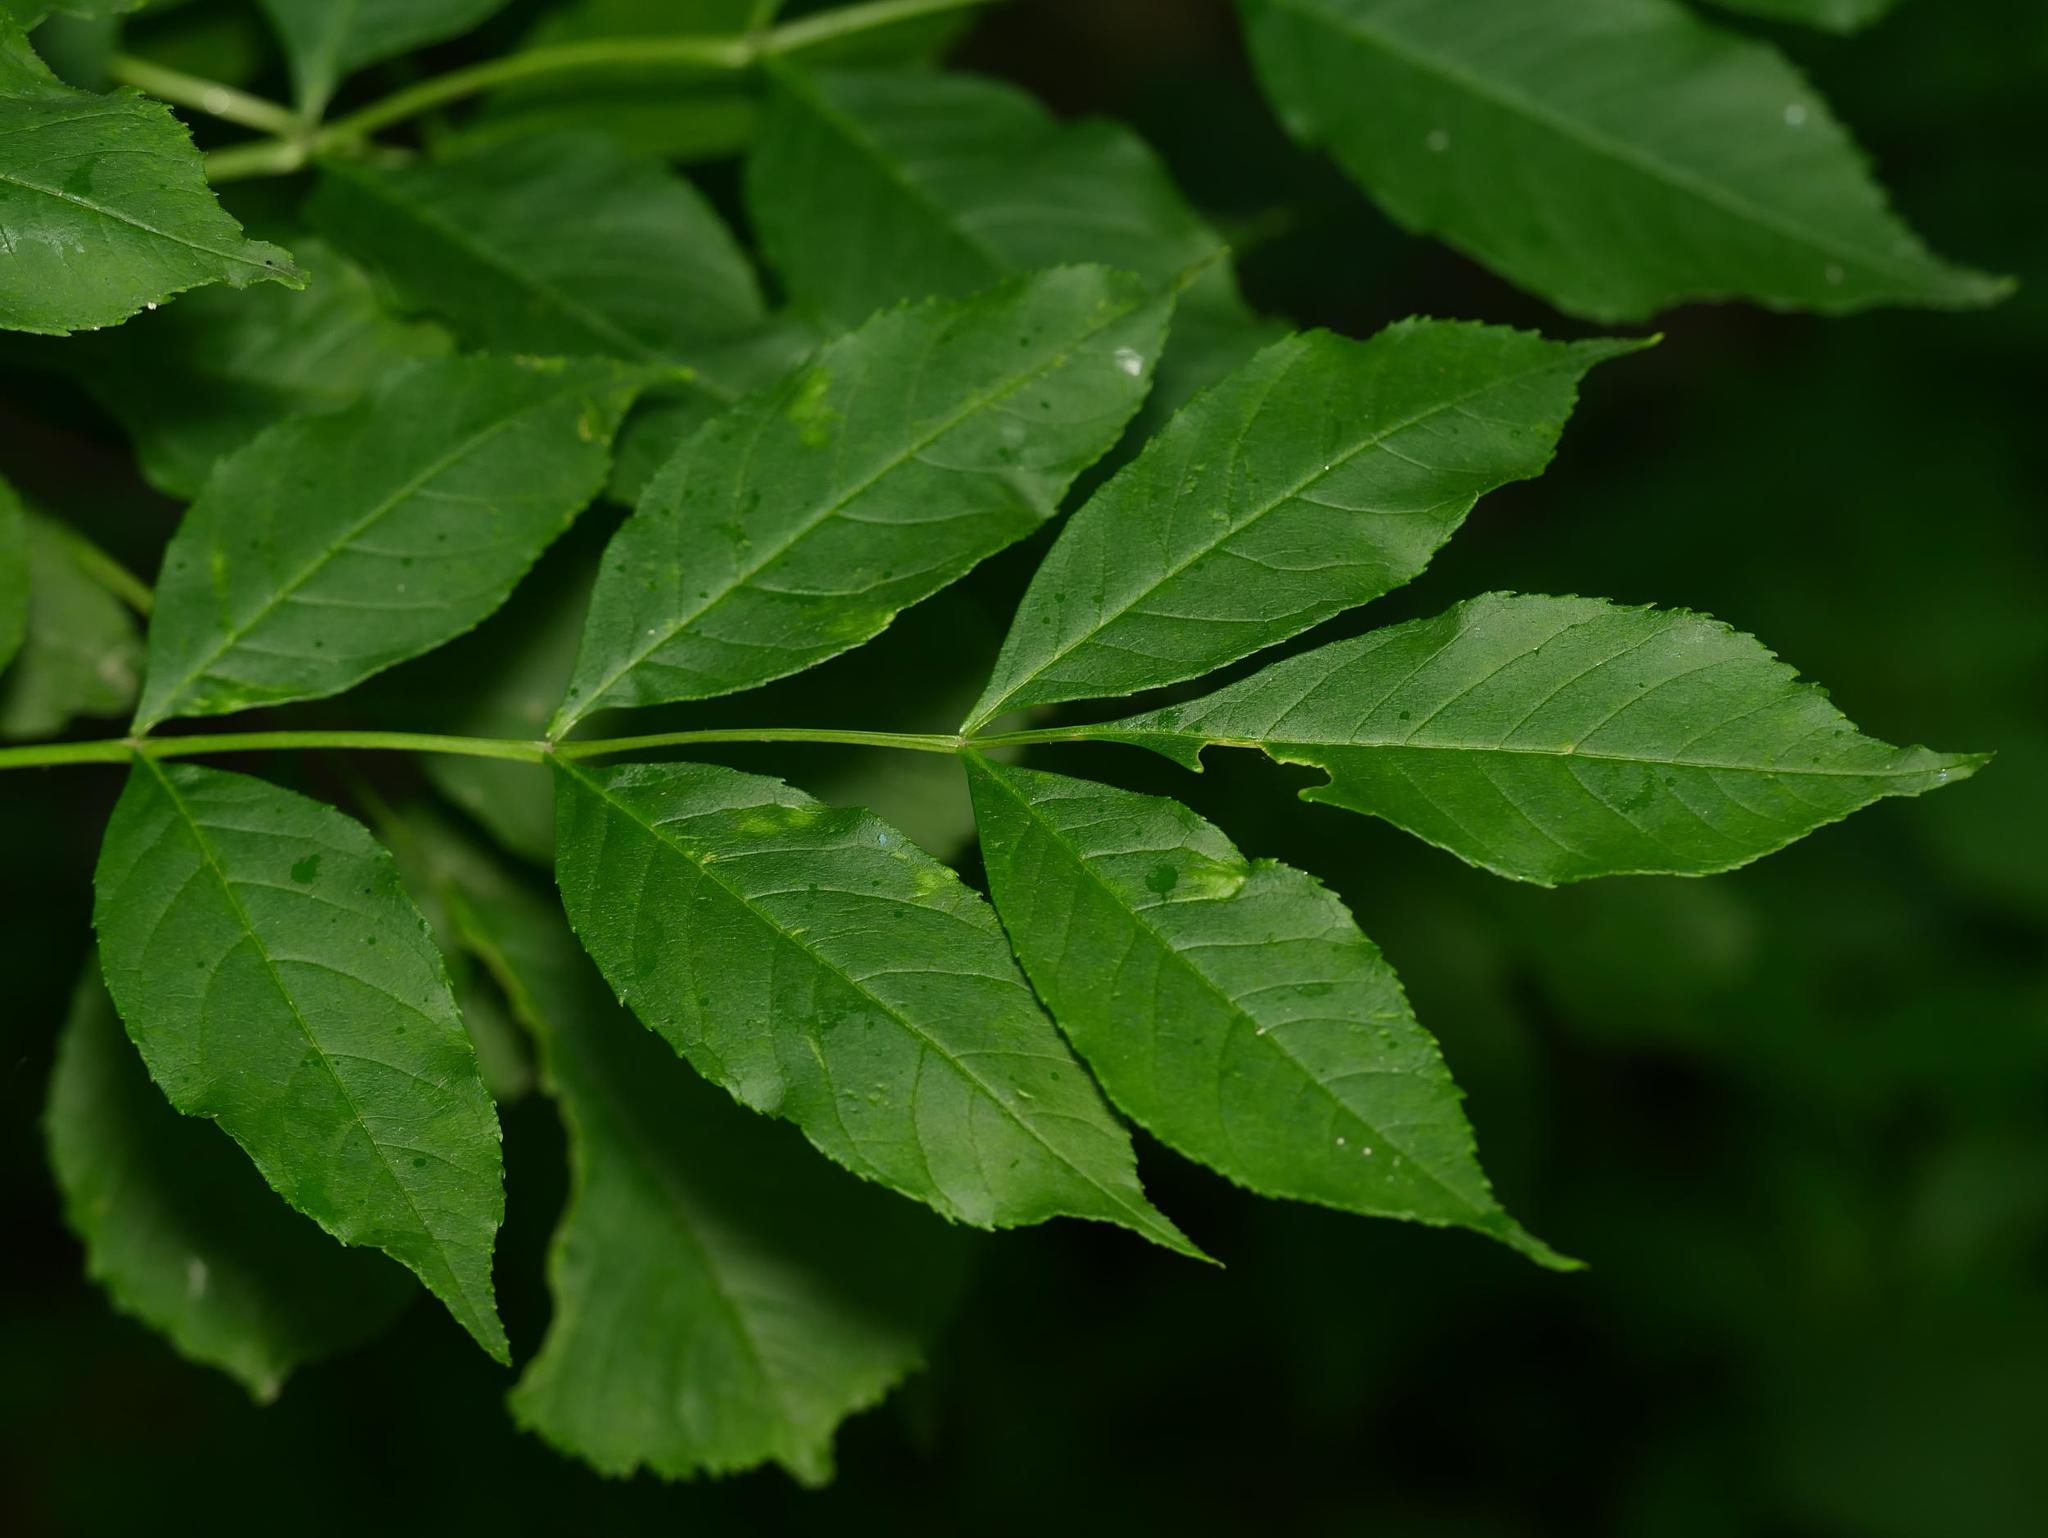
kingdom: Plantae
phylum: Tracheophyta
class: Magnoliopsida
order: Lamiales
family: Oleaceae
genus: Fraxinus
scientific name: Fraxinus excelsior
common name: European ash
